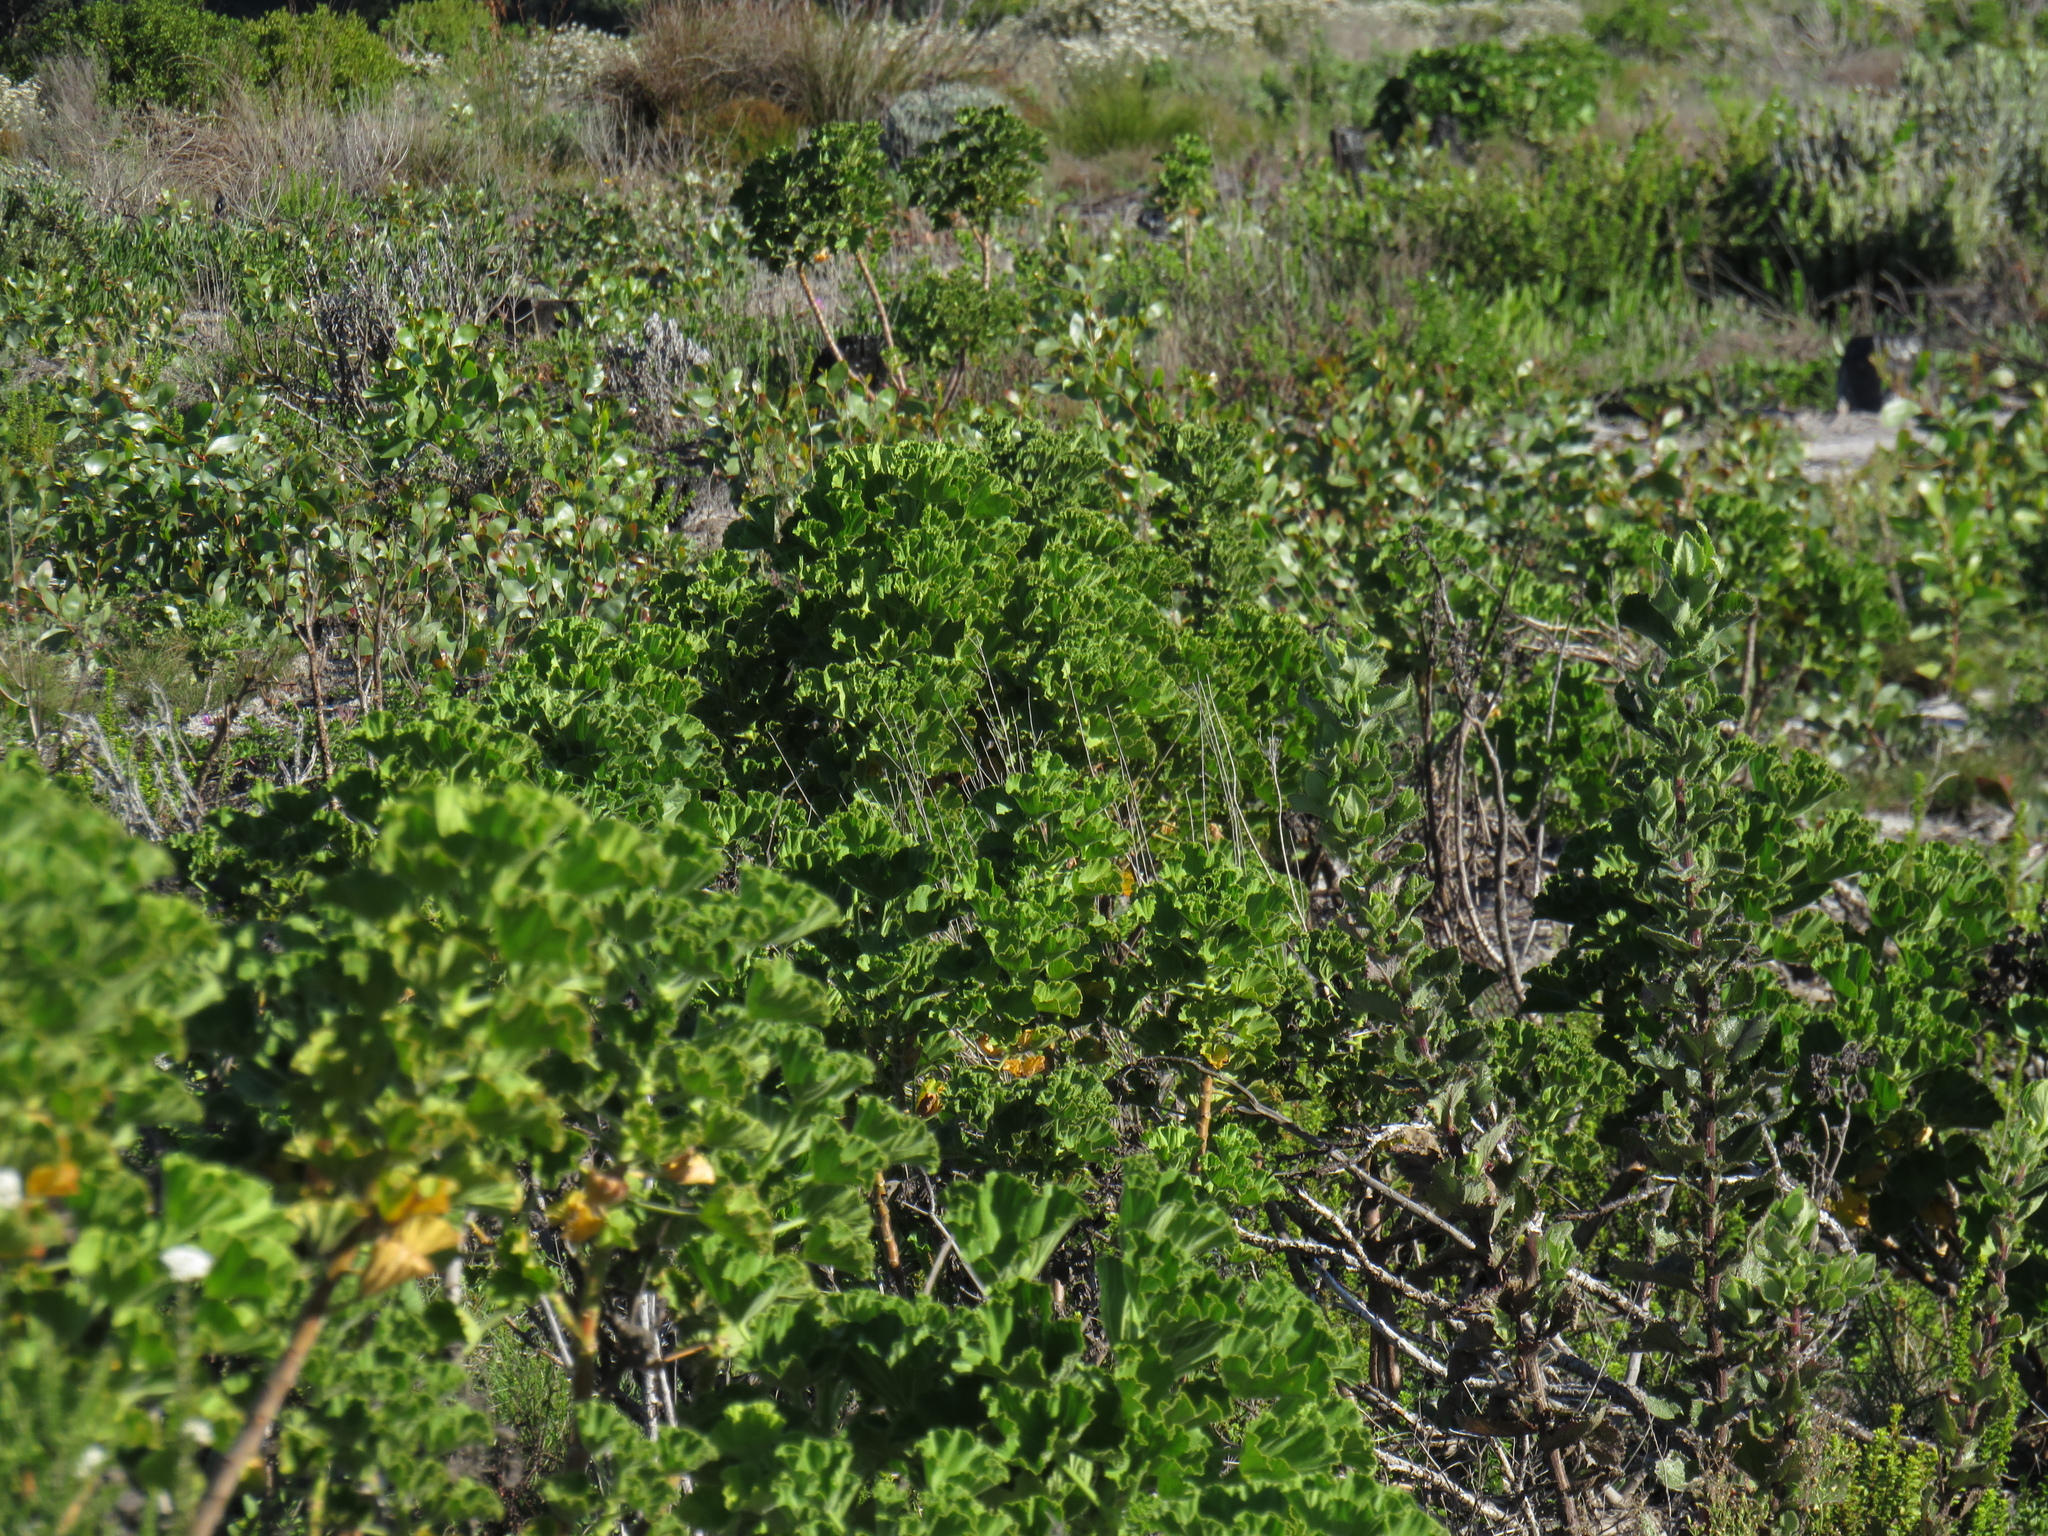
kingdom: Plantae
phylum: Tracheophyta
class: Magnoliopsida
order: Geraniales
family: Geraniaceae
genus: Pelargonium
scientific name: Pelargonium cucullatum
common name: Tree pelargonium
